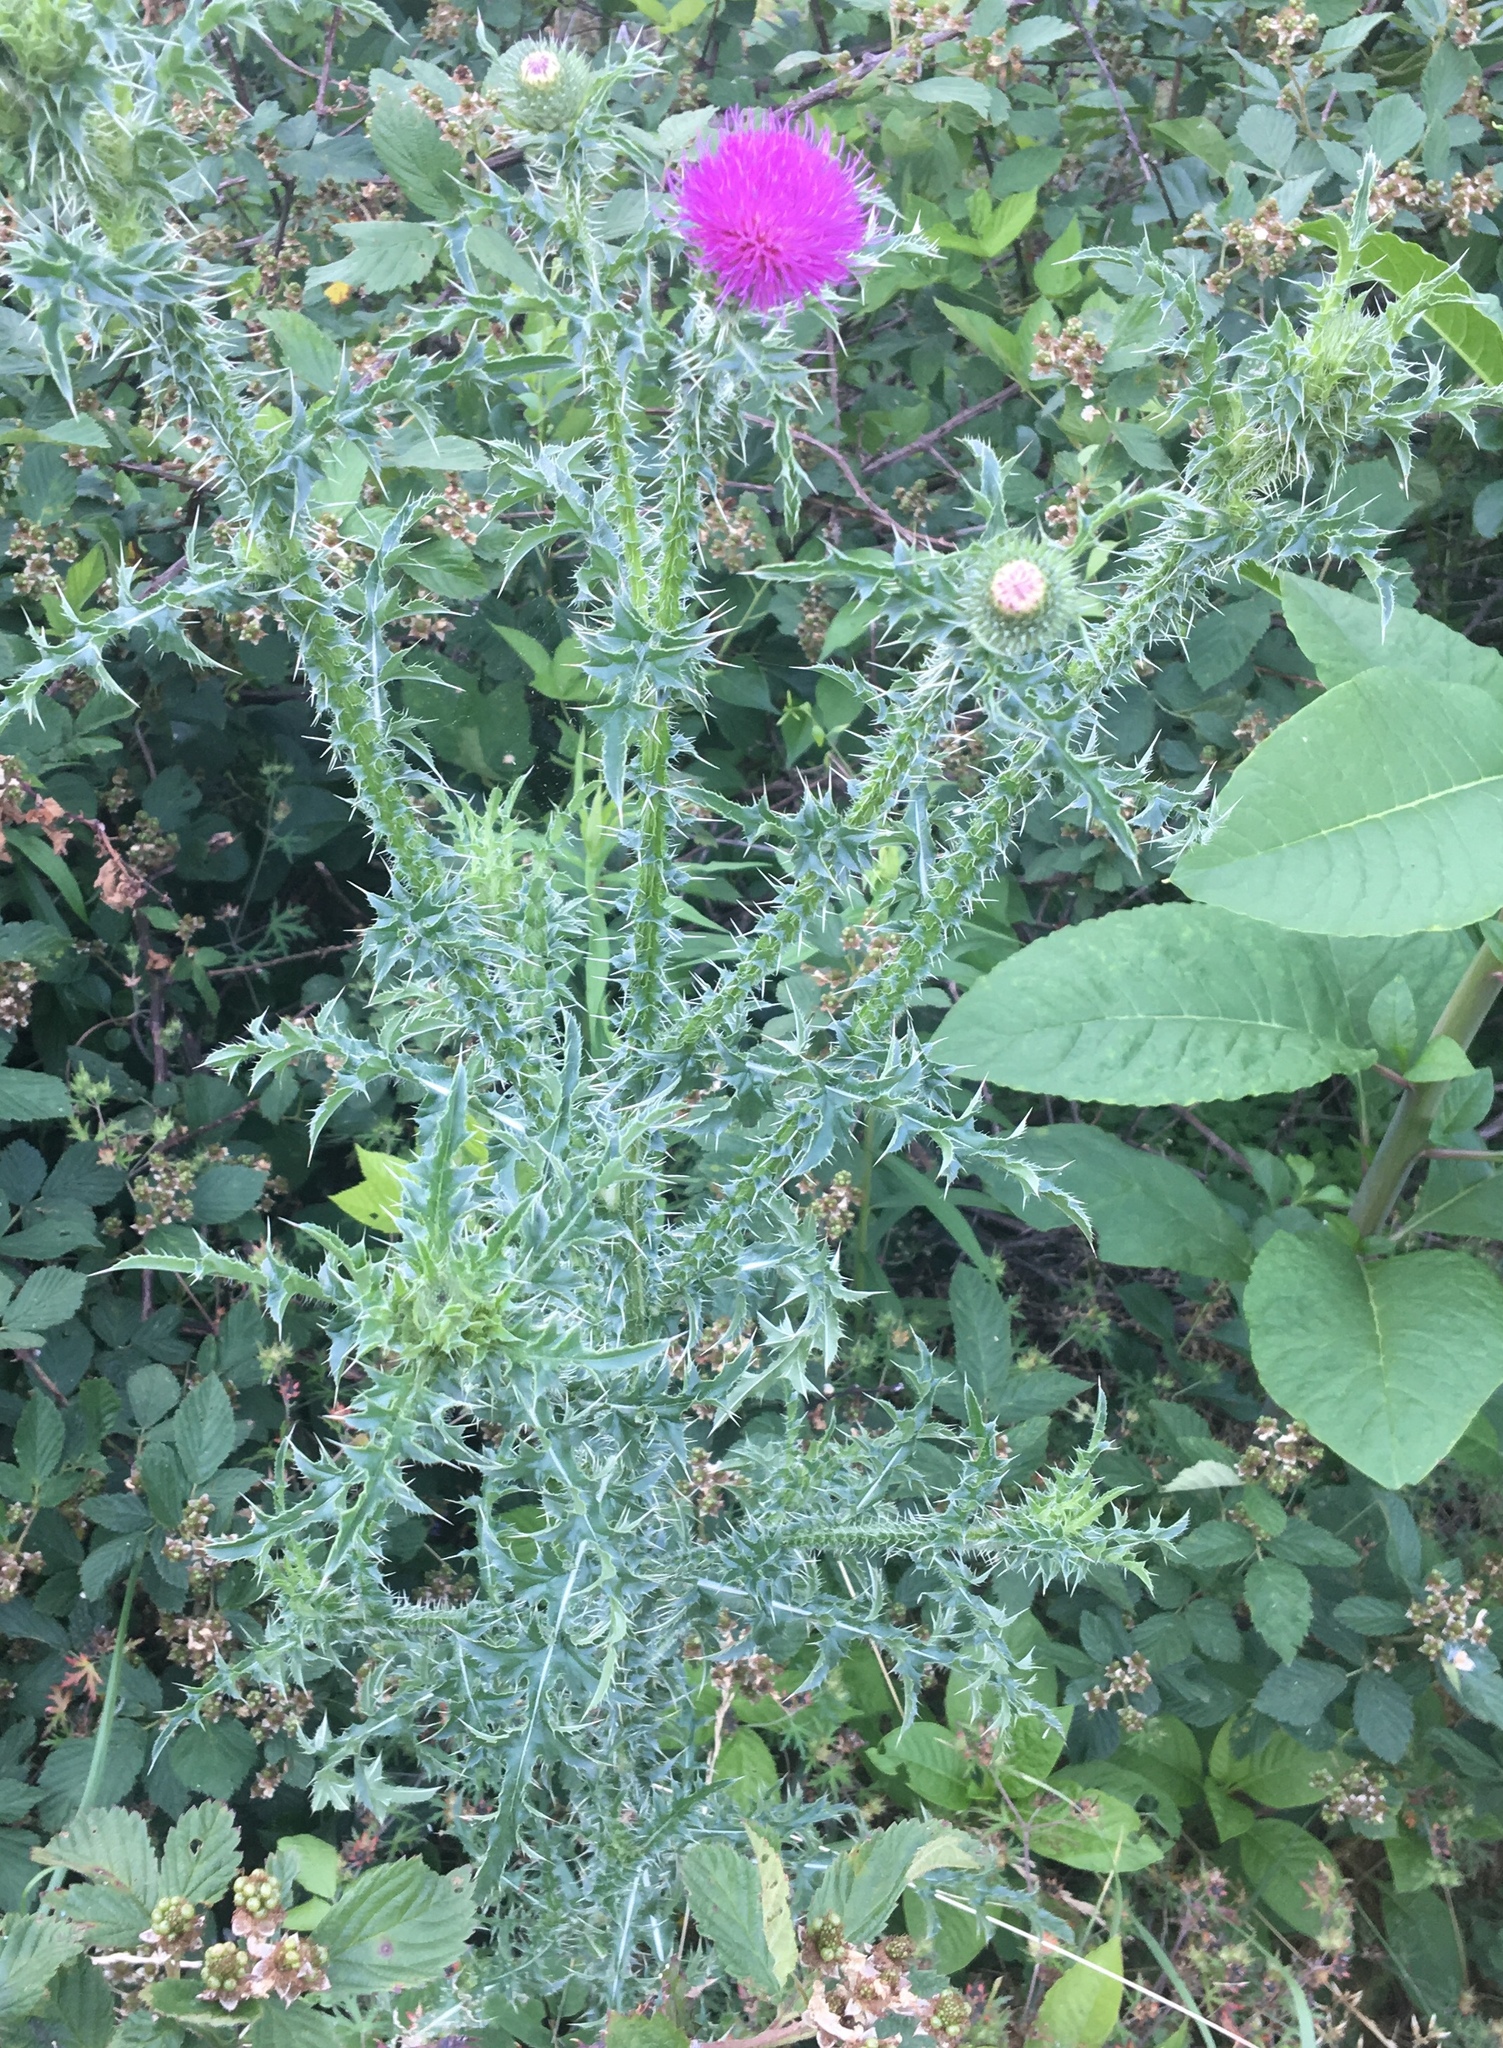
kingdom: Plantae
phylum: Tracheophyta
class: Magnoliopsida
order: Asterales
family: Asteraceae
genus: Carduus
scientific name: Carduus acanthoides
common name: Plumeless thistle
